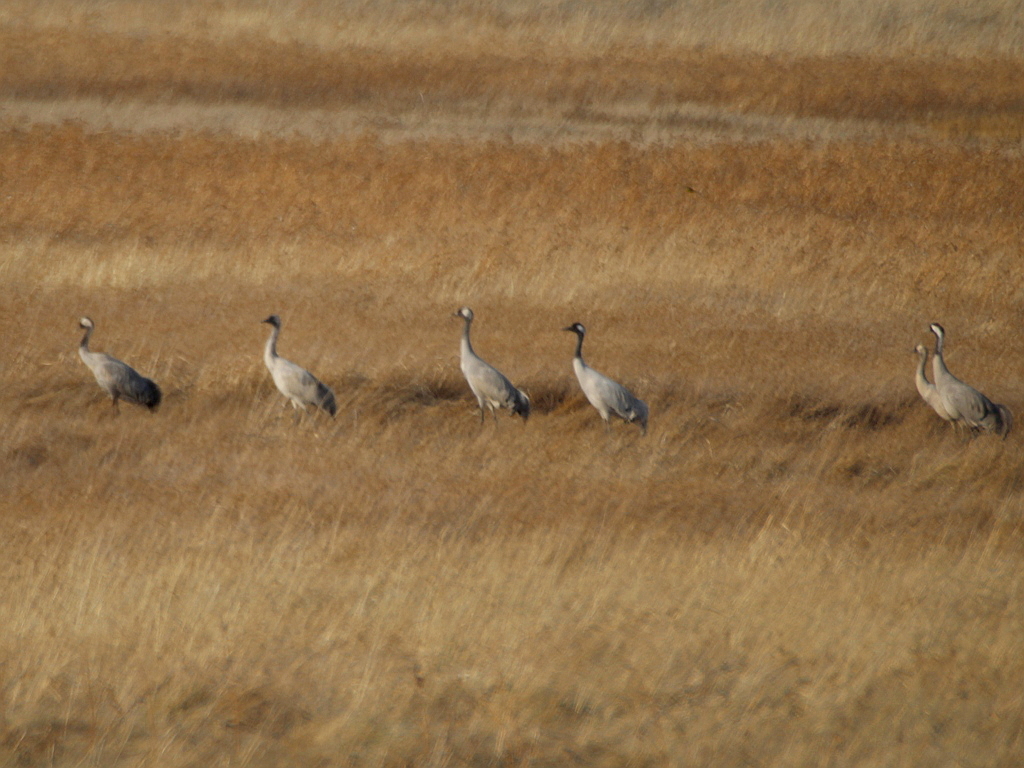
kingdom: Animalia
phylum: Chordata
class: Aves
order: Gruiformes
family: Gruidae
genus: Grus
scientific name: Grus grus
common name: Common crane
